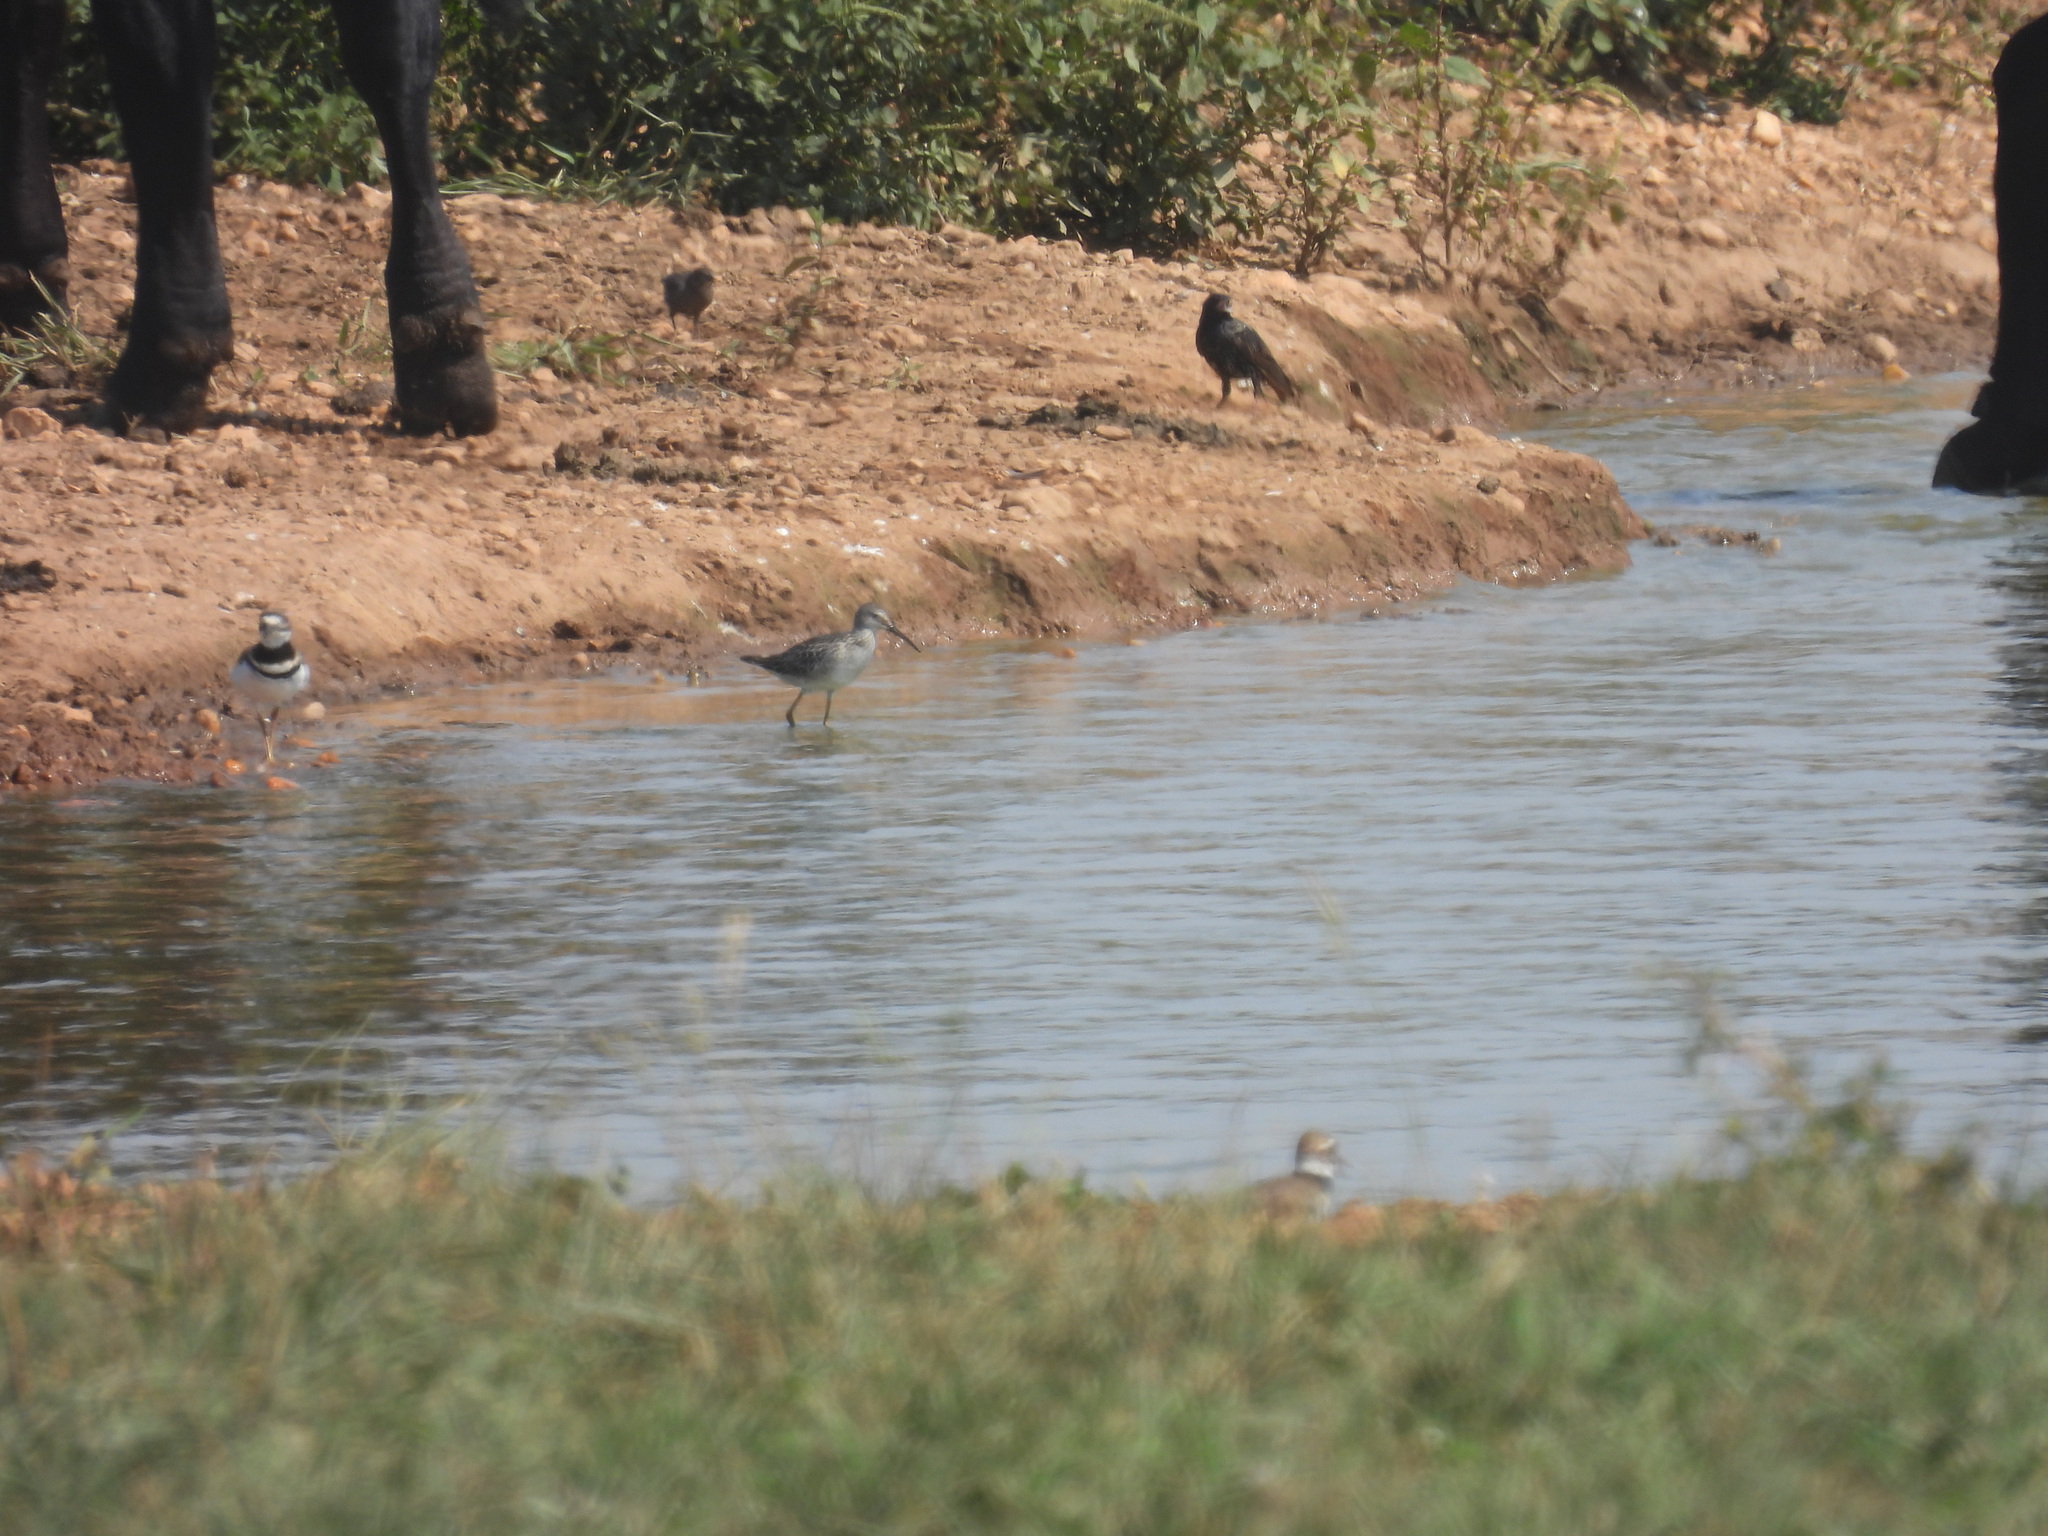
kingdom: Animalia
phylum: Chordata
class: Aves
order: Charadriiformes
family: Scolopacidae
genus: Calidris
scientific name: Calidris himantopus
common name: Stilt sandpiper
